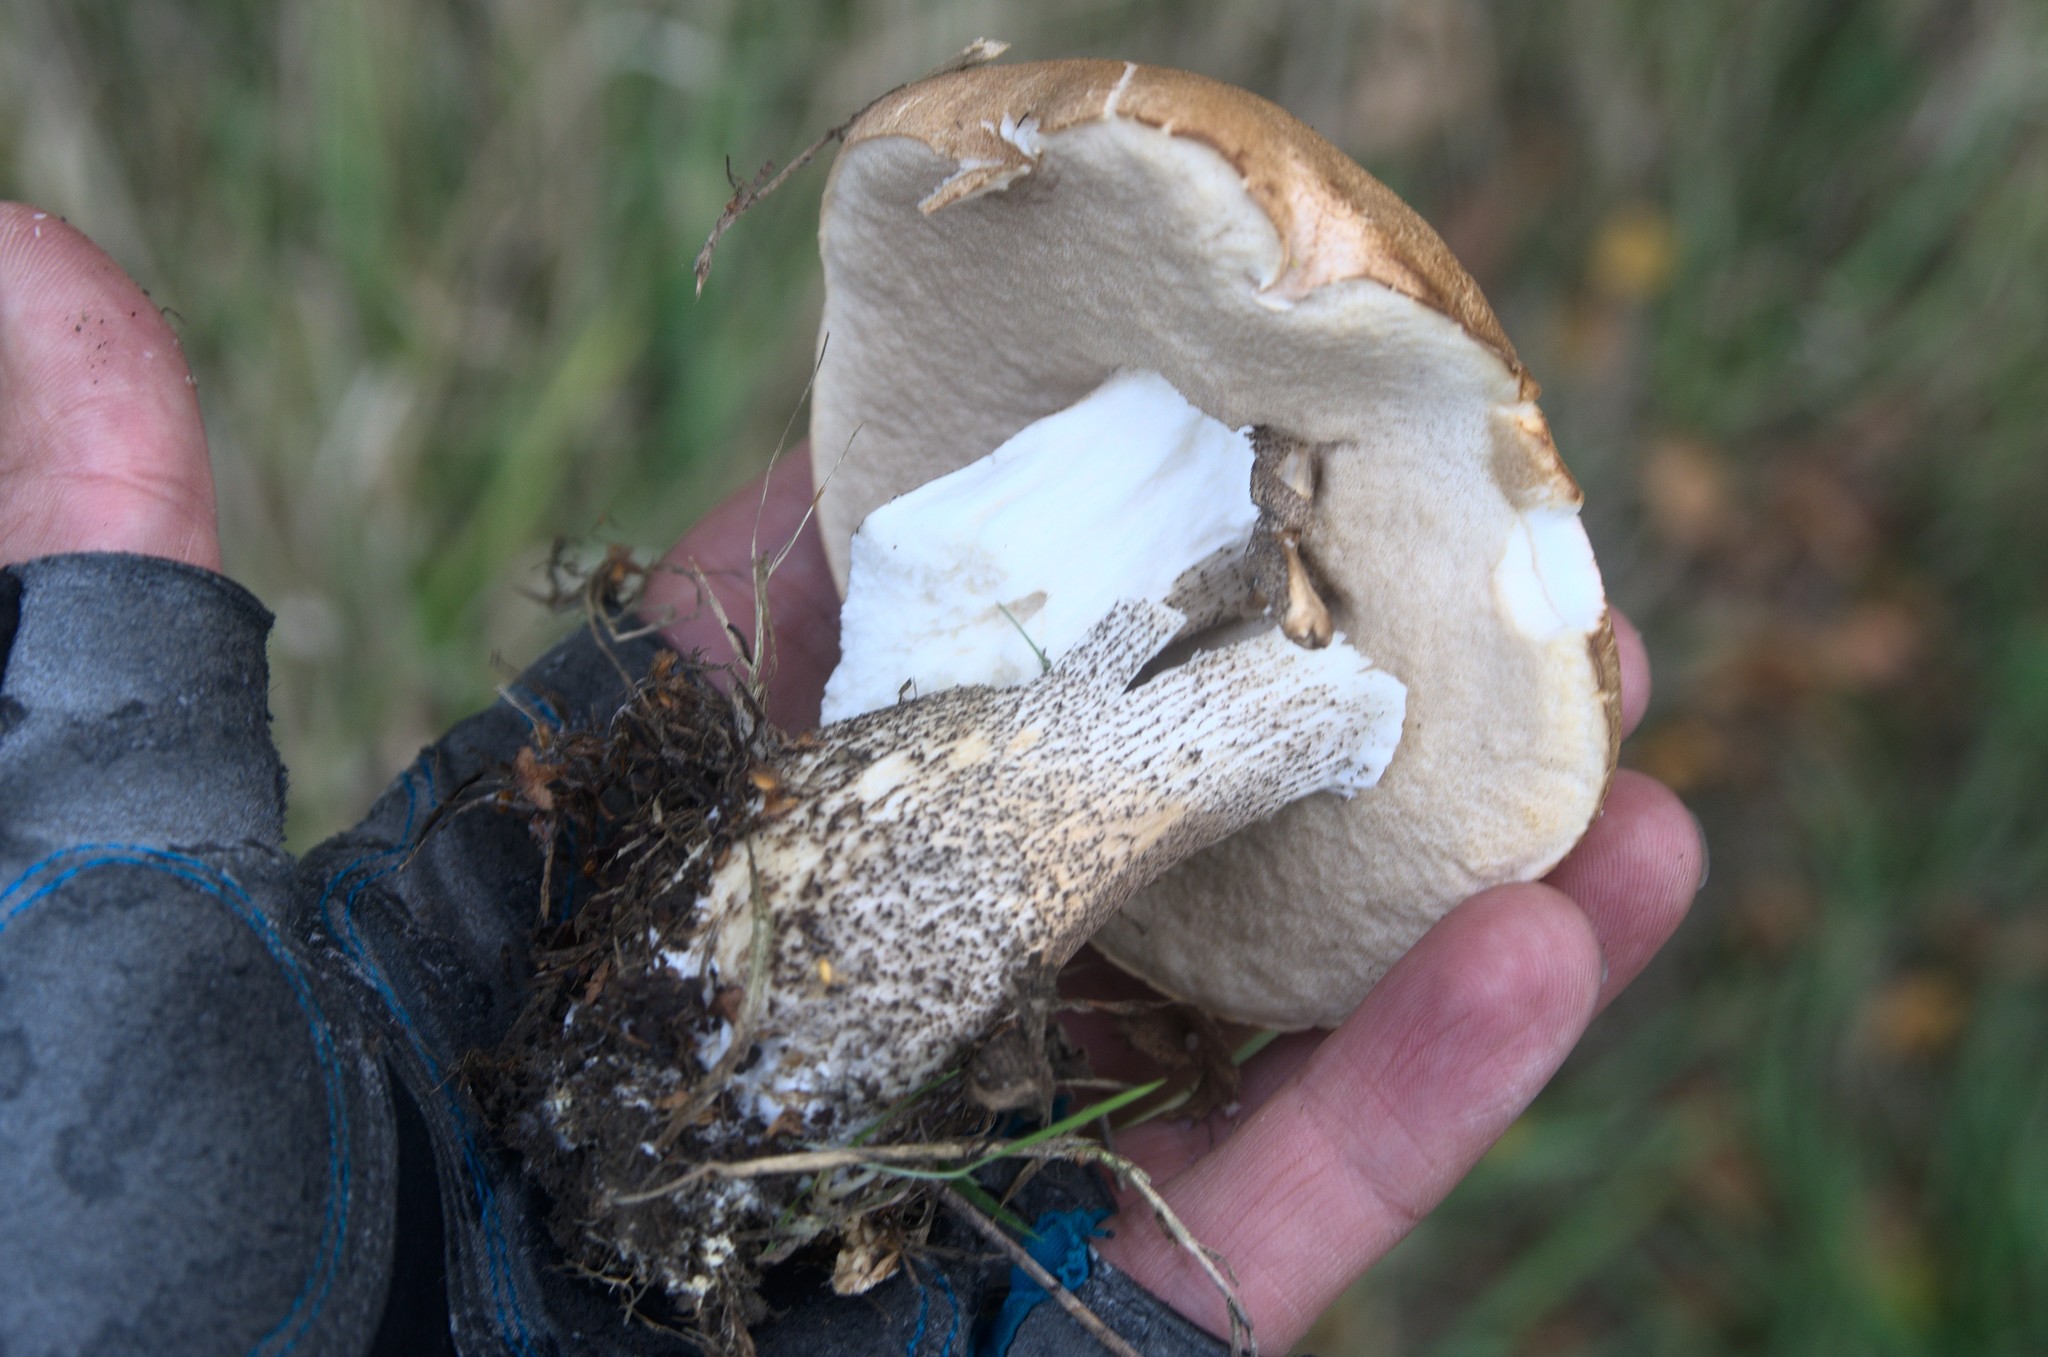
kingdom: Fungi
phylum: Basidiomycota
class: Agaricomycetes
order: Boletales
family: Boletaceae
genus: Leccinum
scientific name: Leccinum scabrum
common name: Blushing bolete
